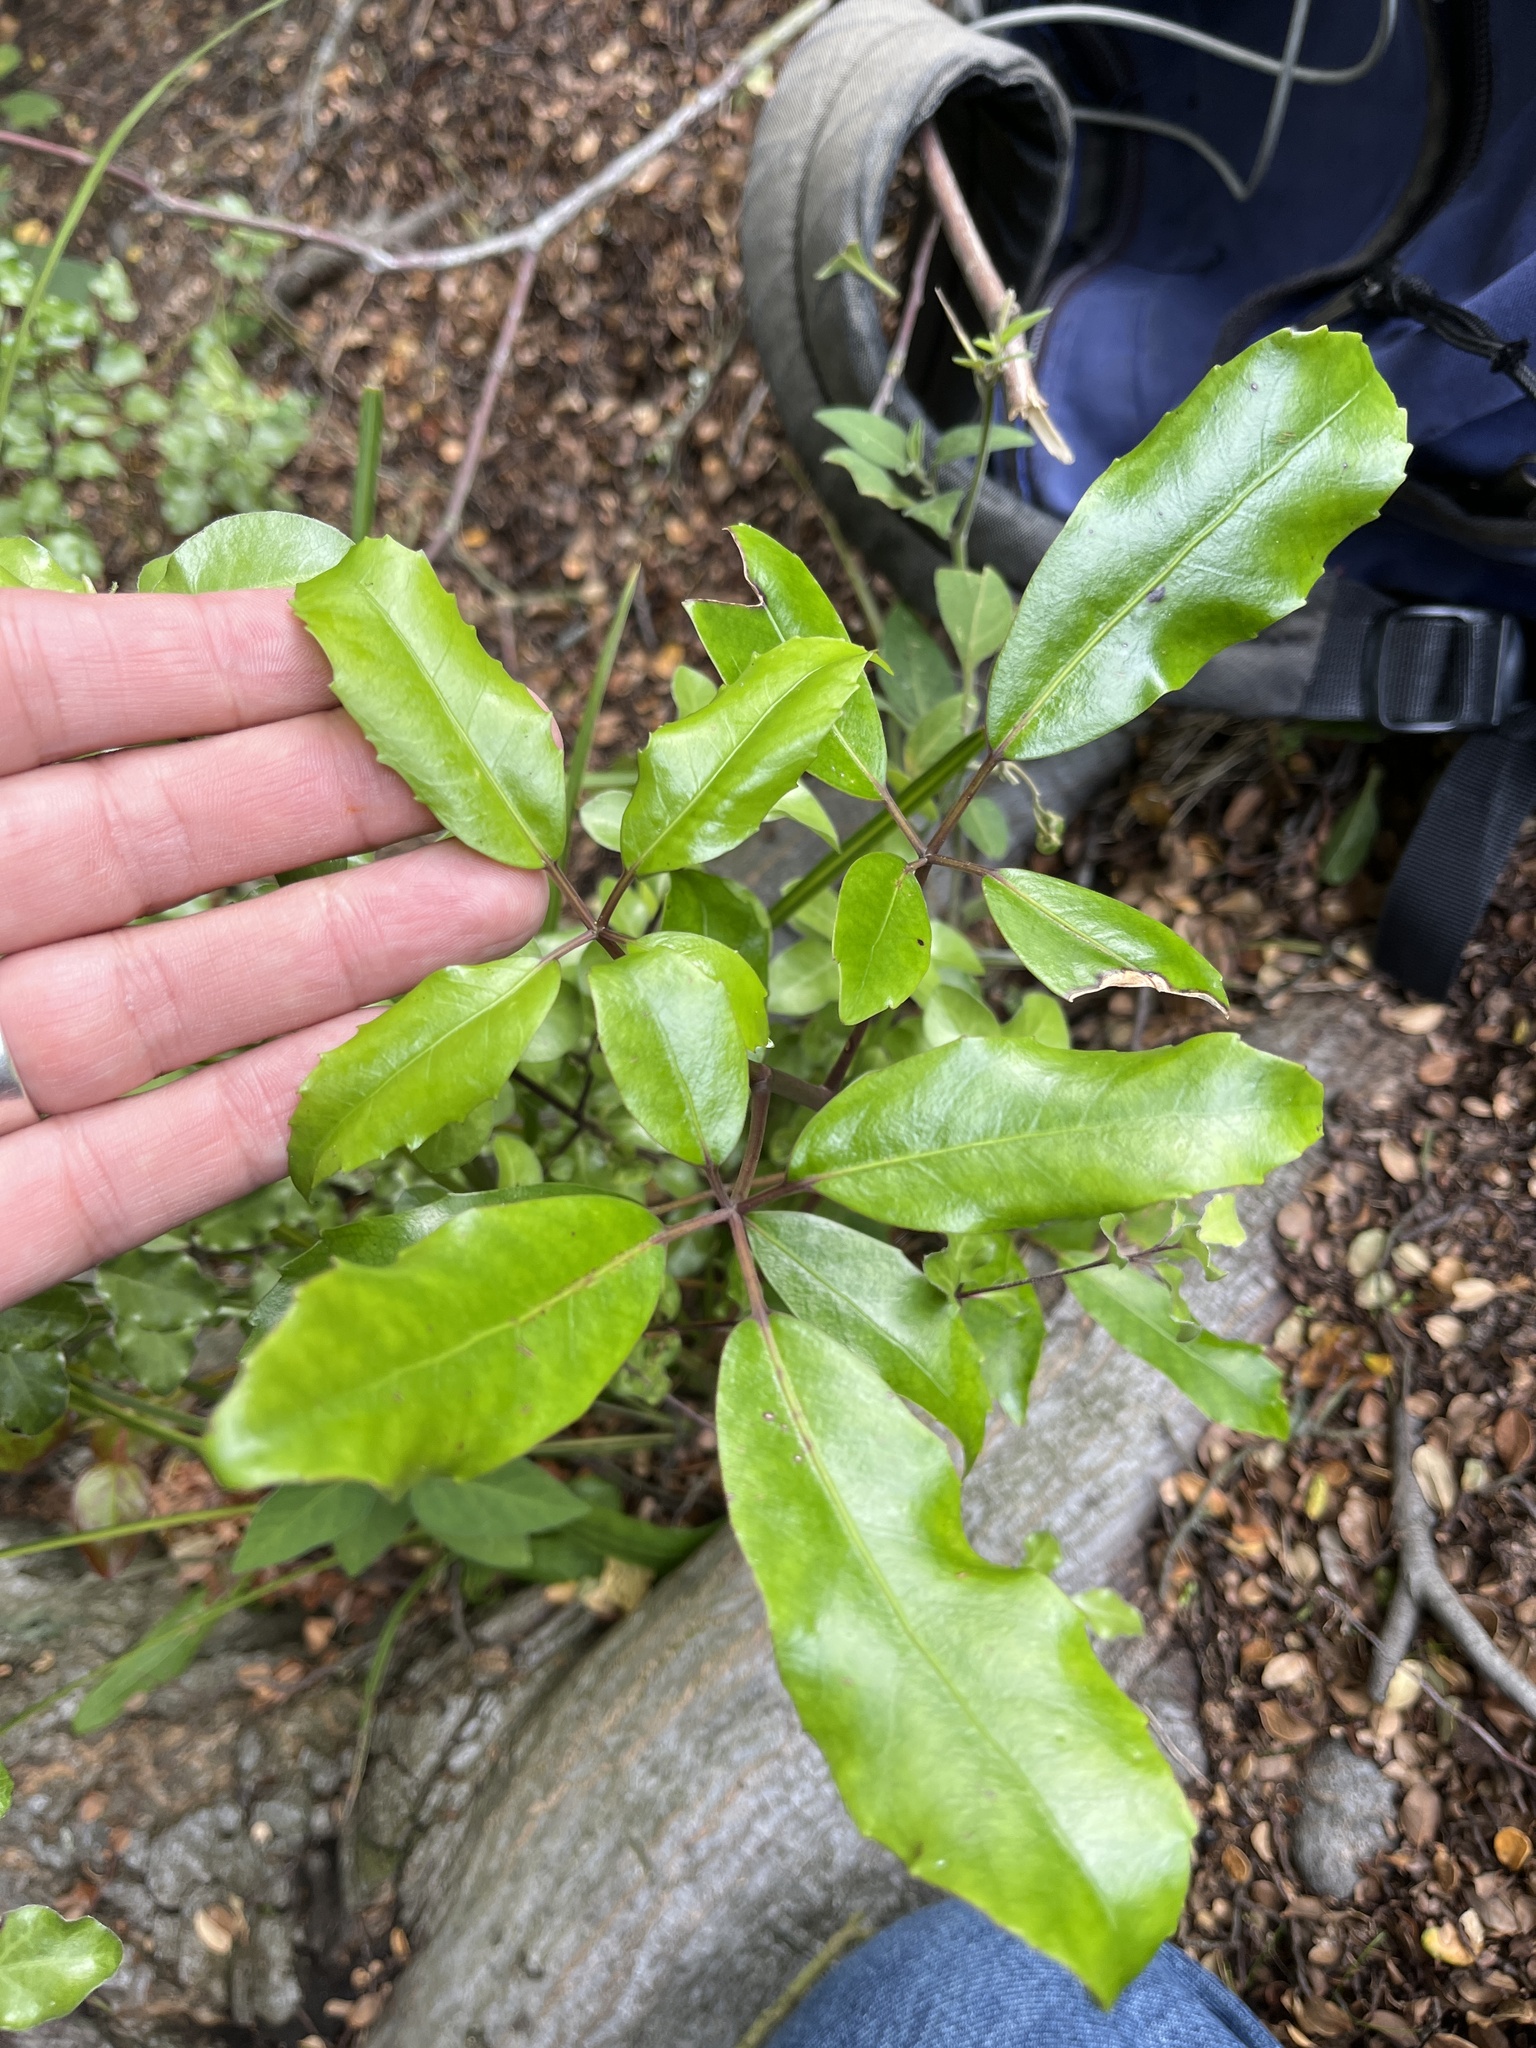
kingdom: Plantae
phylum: Tracheophyta
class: Magnoliopsida
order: Apiales
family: Araliaceae
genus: Neopanax
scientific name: Neopanax arboreus
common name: Five-fingers
